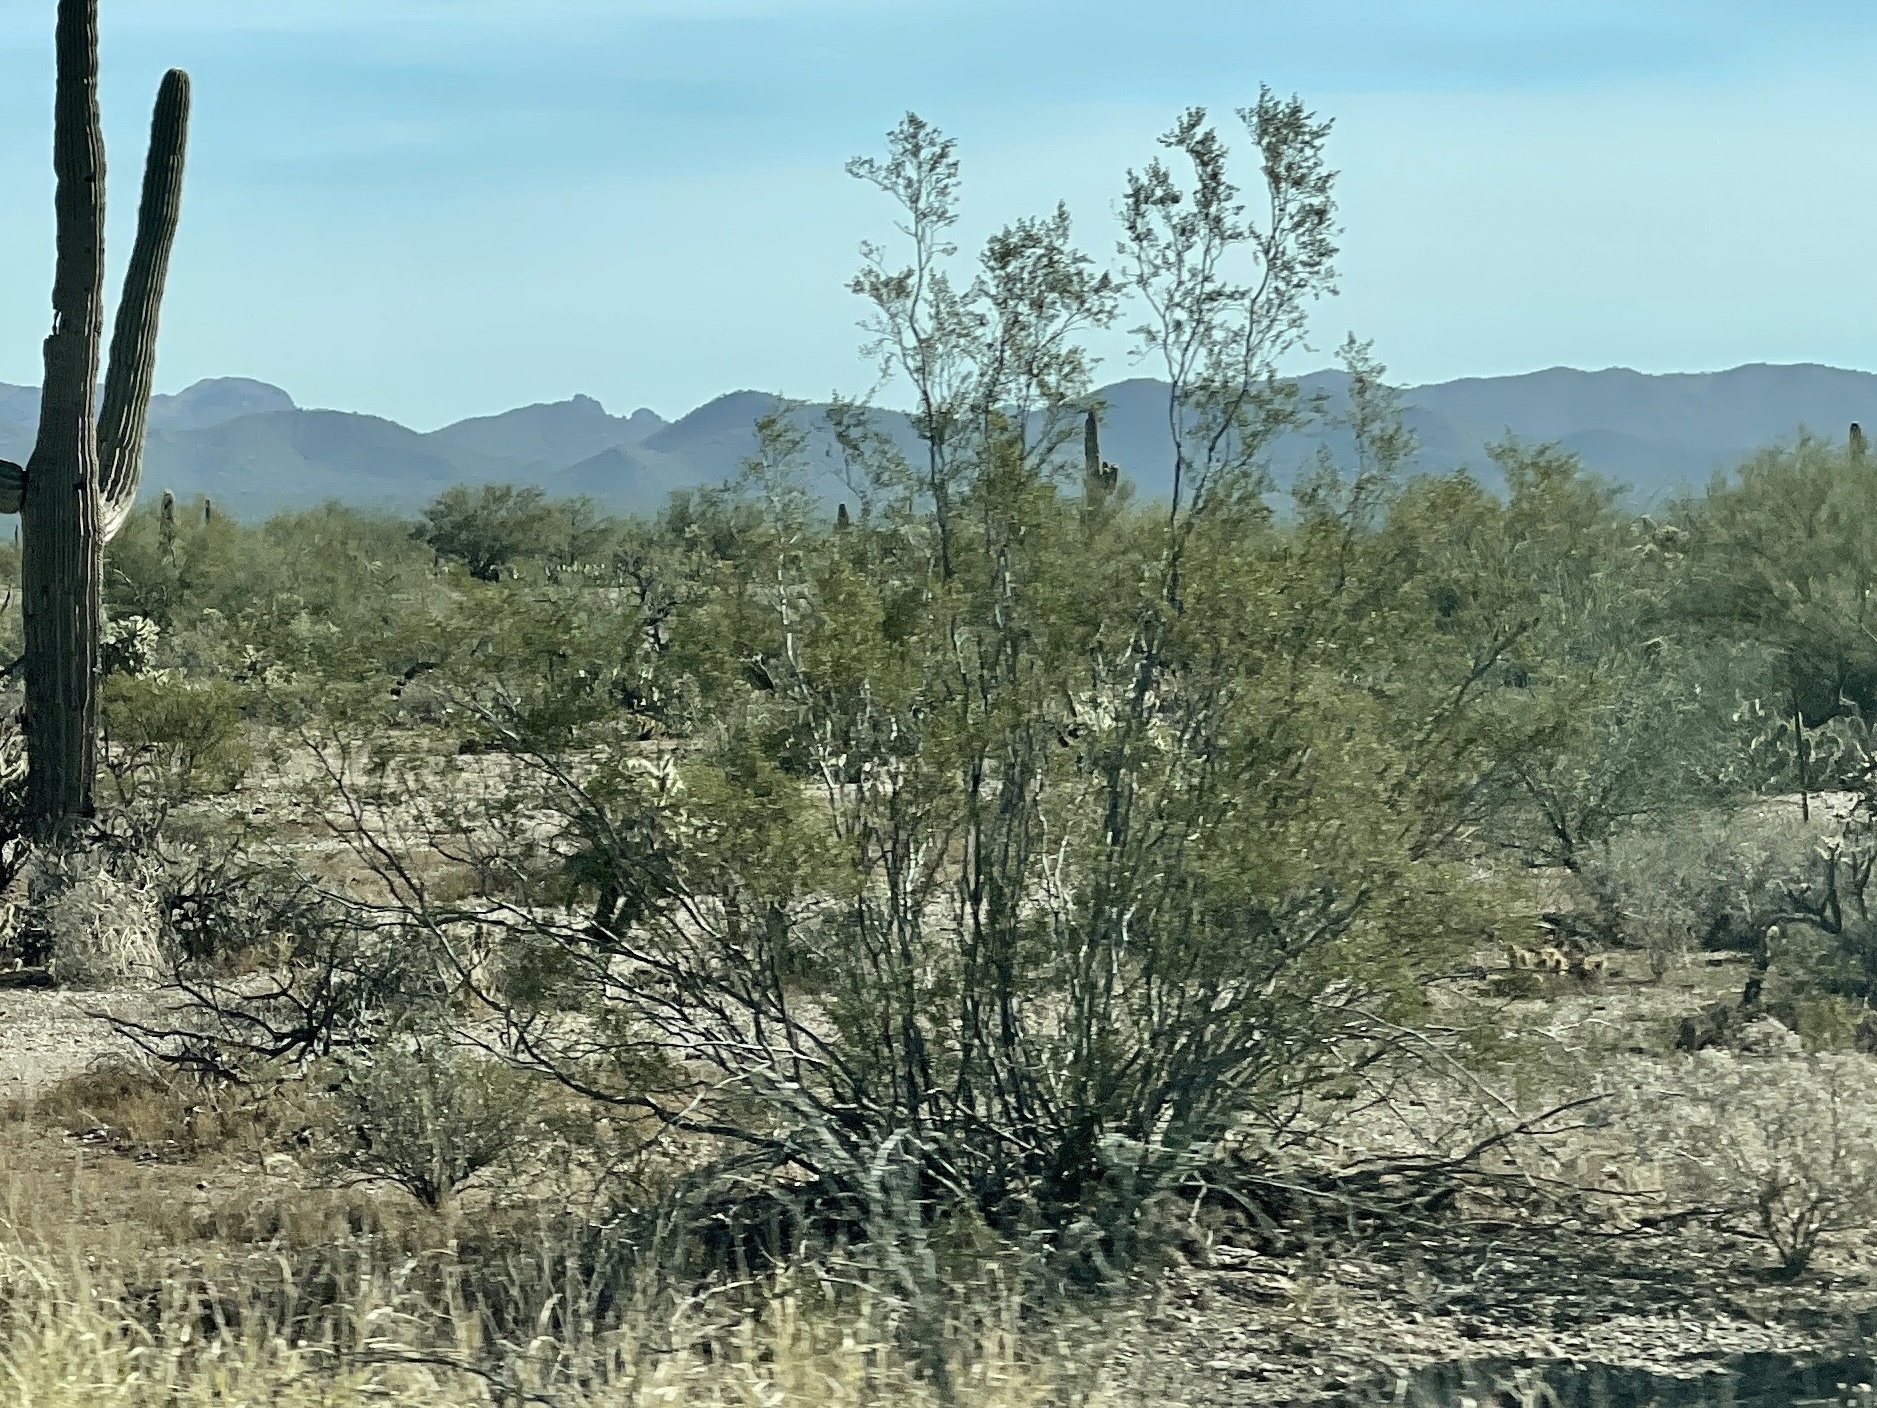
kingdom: Plantae
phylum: Tracheophyta
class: Magnoliopsida
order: Zygophyllales
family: Zygophyllaceae
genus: Larrea
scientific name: Larrea tridentata
